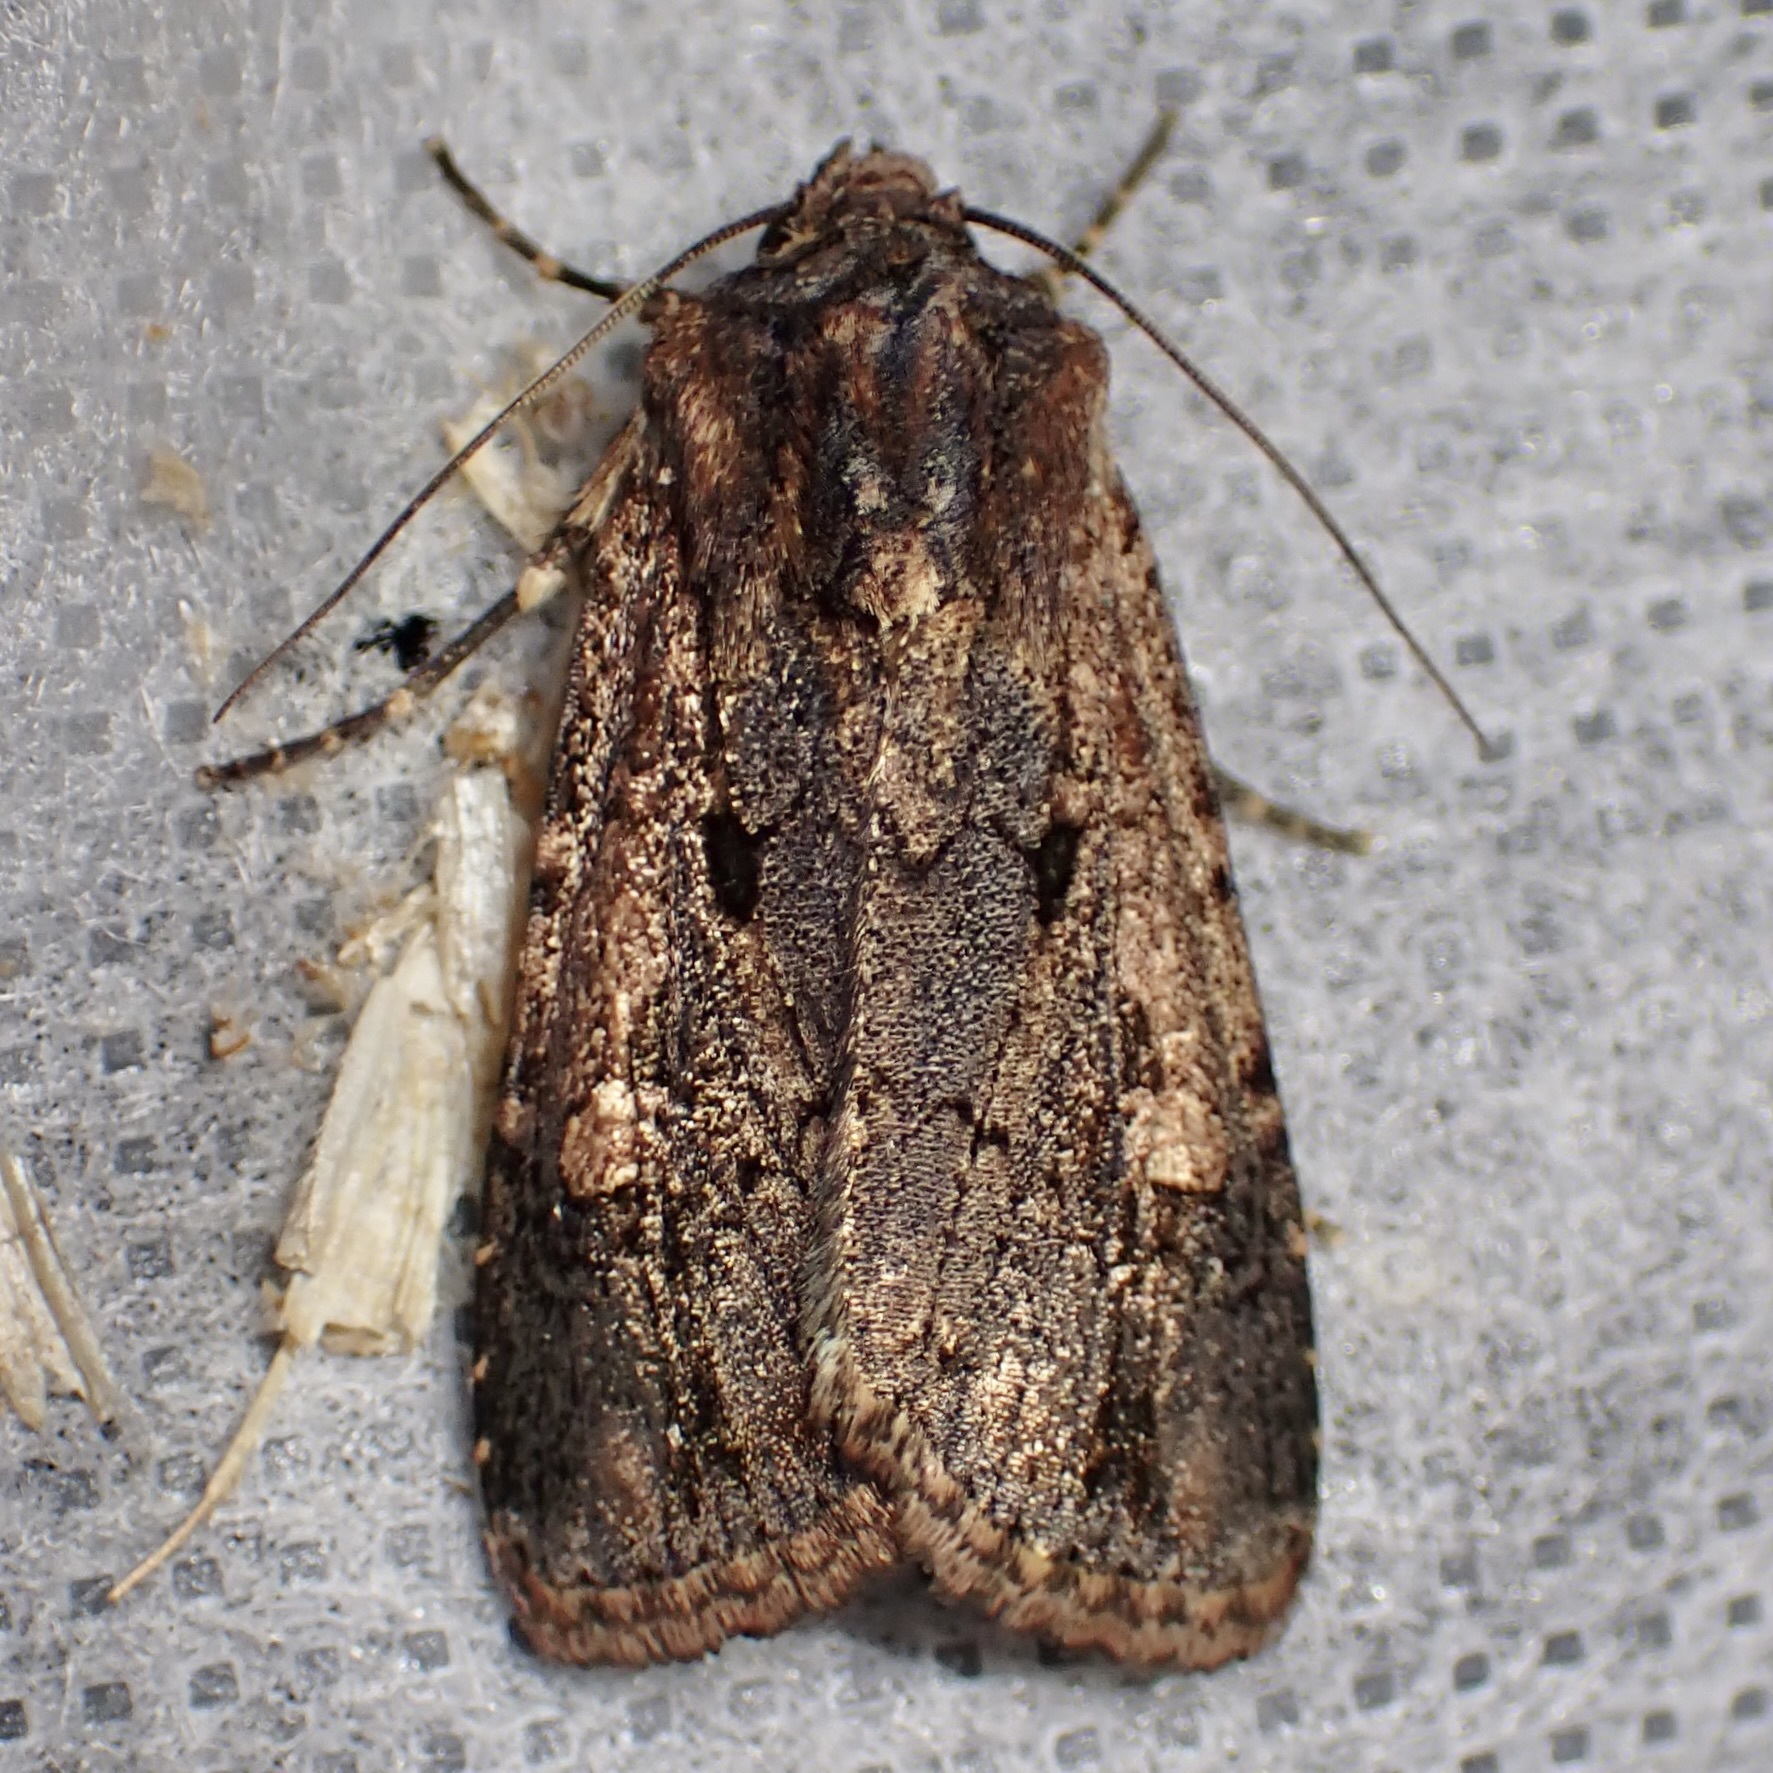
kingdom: Animalia
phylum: Arthropoda
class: Insecta
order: Lepidoptera
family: Noctuidae
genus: Dichagyris
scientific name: Dichagyris proclivis
